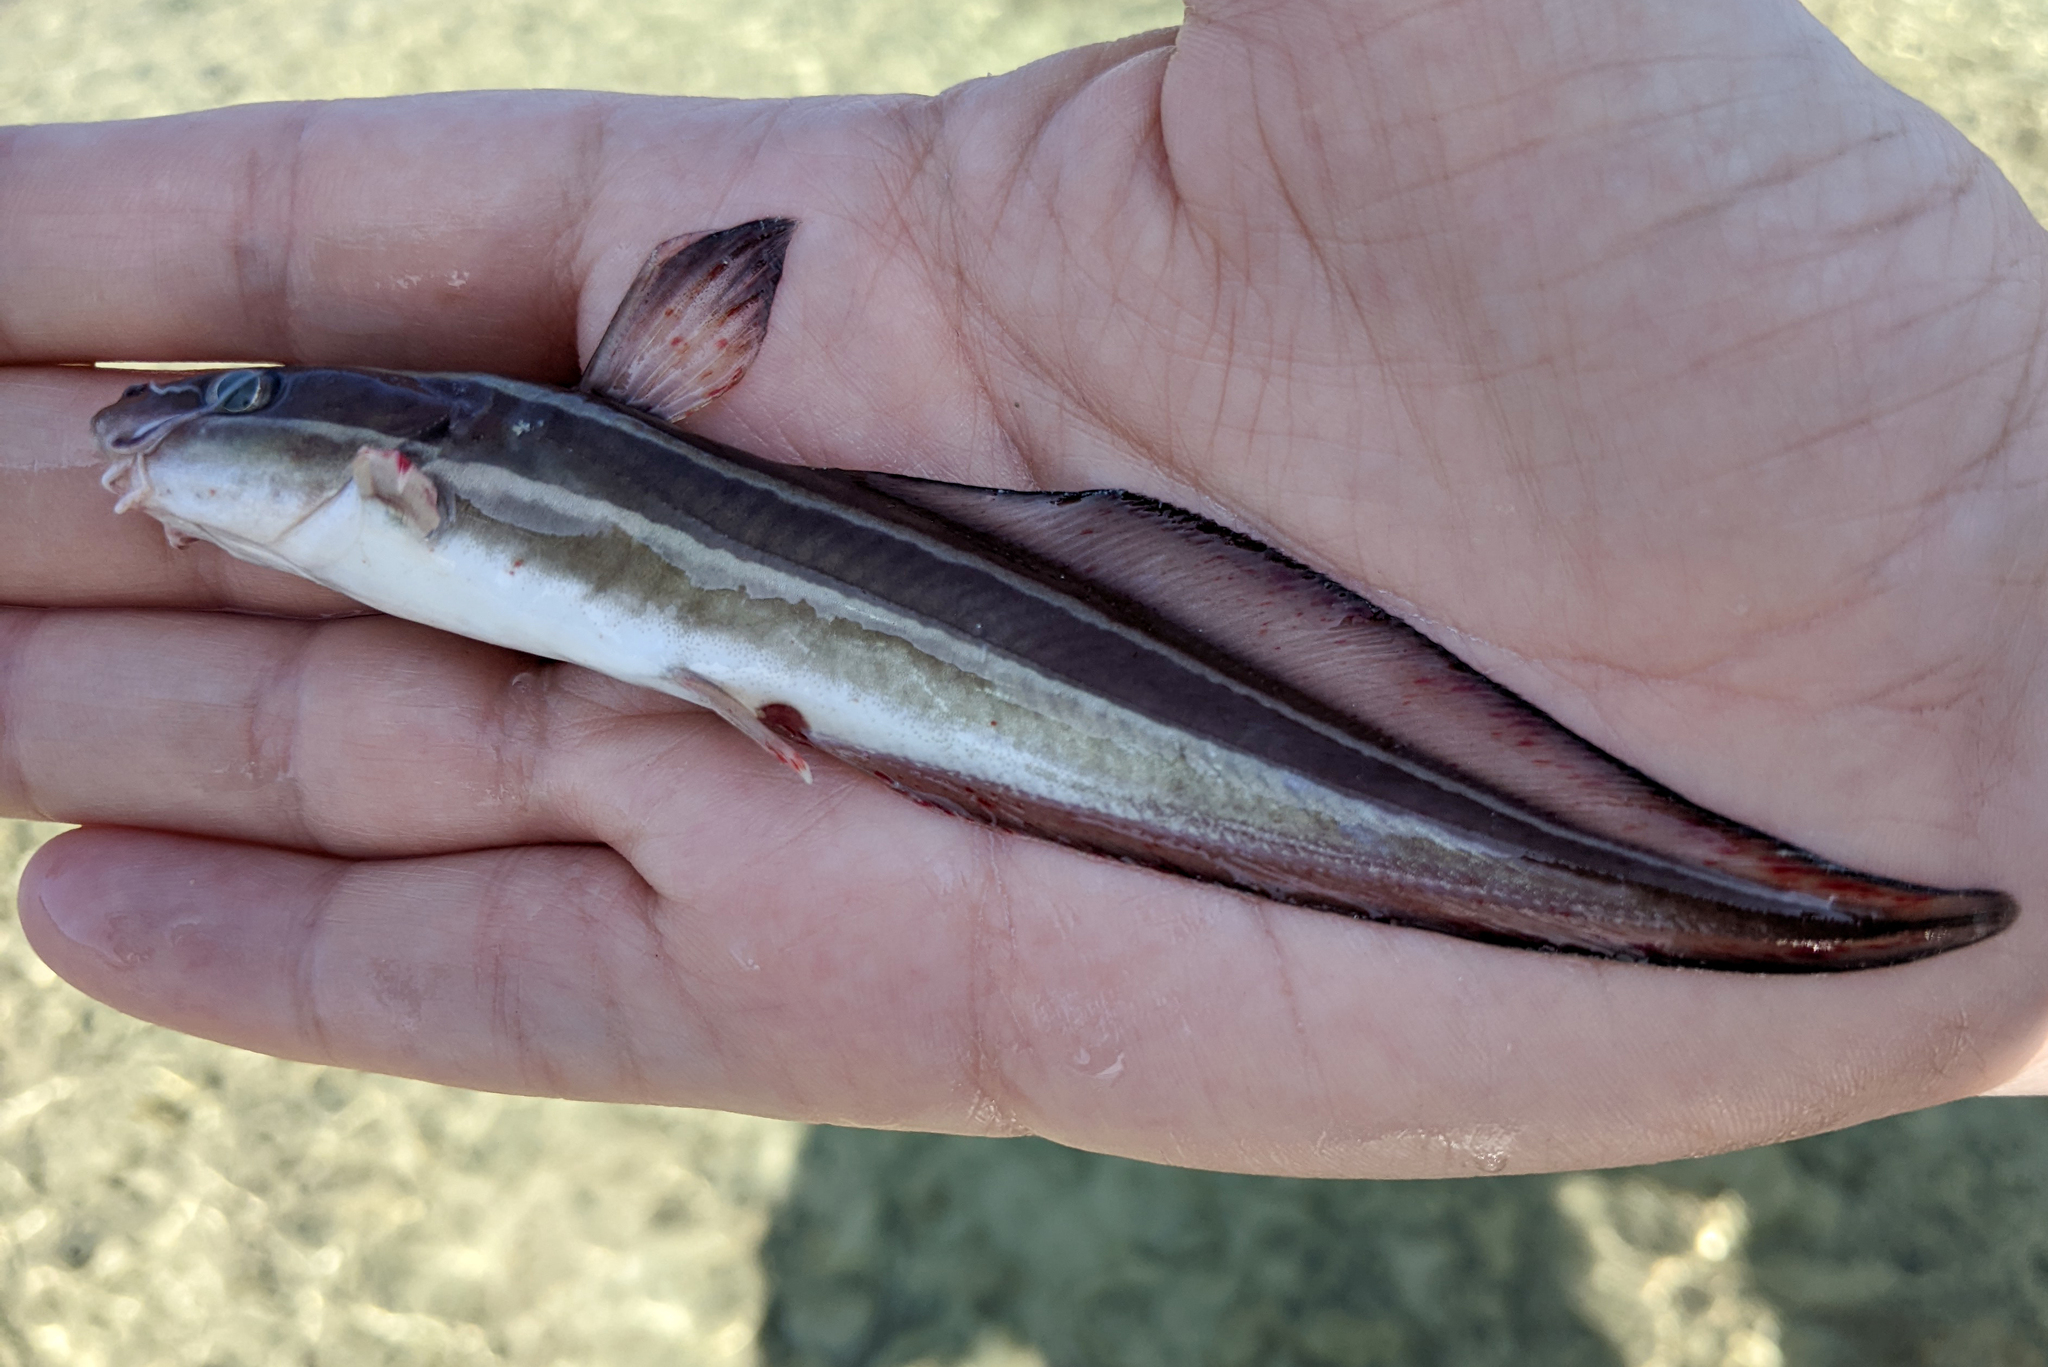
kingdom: Animalia
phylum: Chordata
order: Siluriformes
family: Plotosidae
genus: Plotosus
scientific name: Plotosus lineatus
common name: Striped eel catfish
